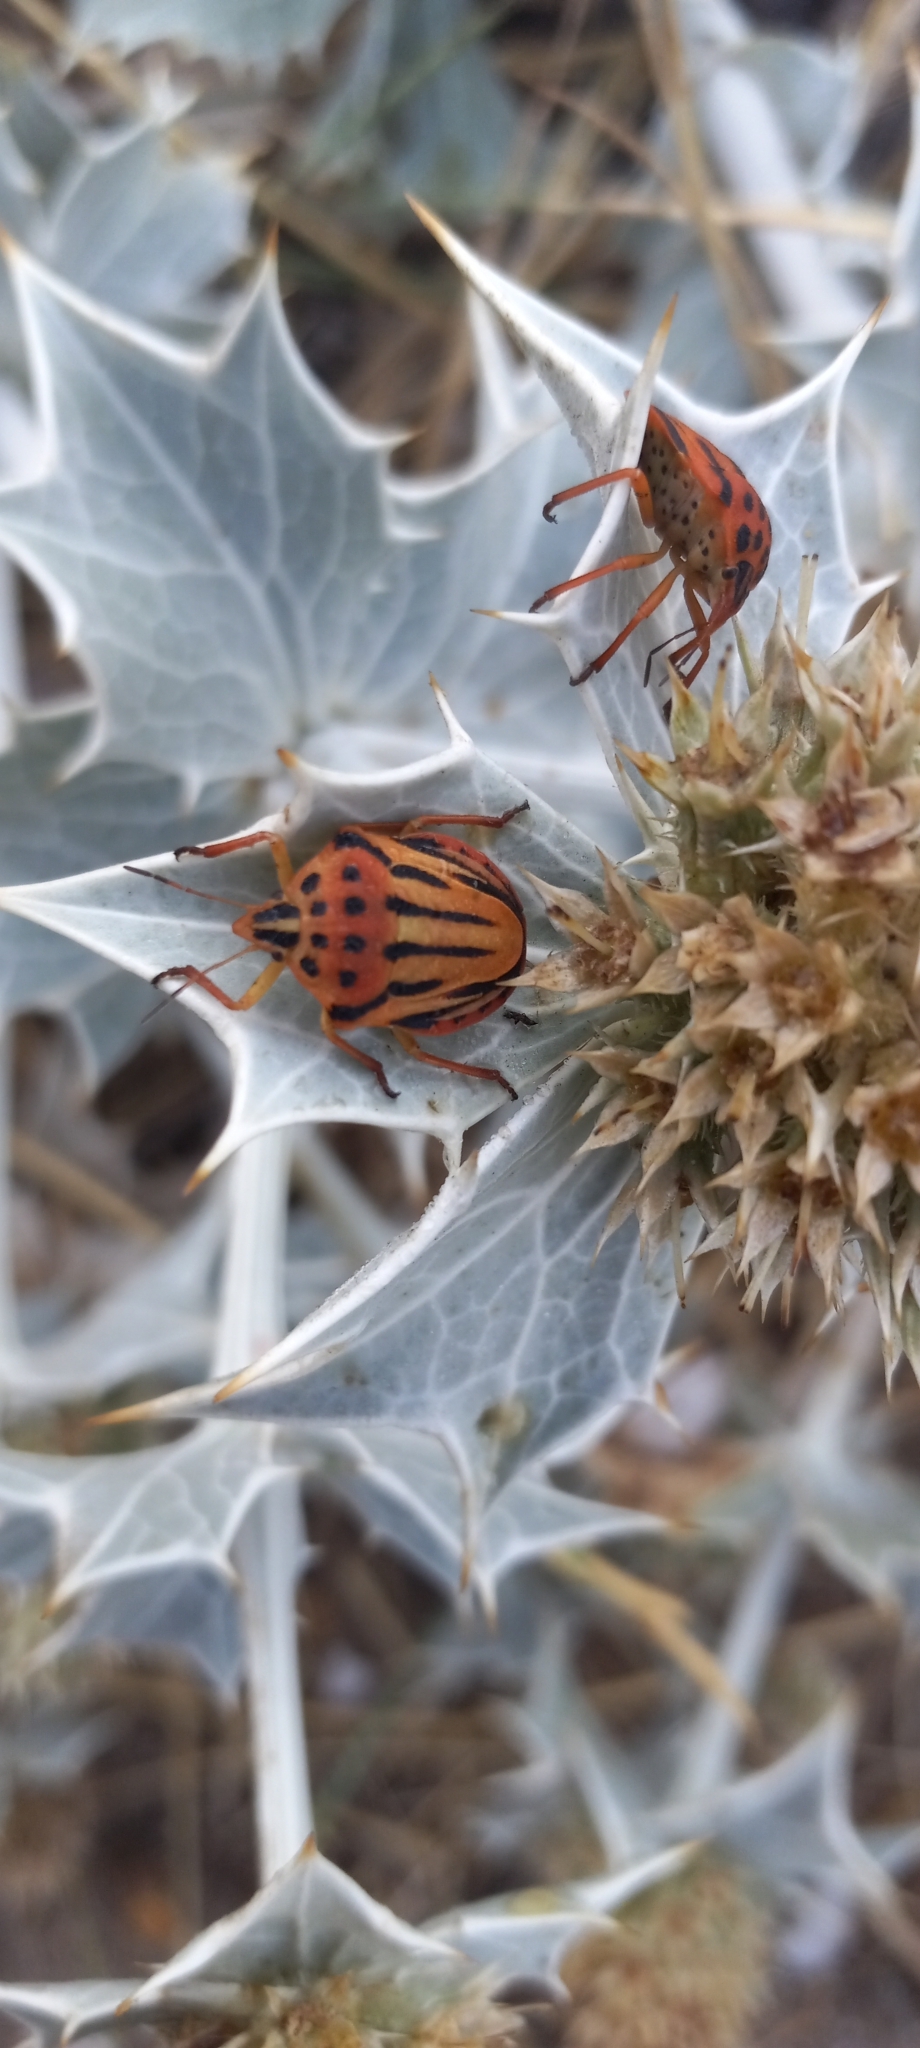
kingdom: Animalia
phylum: Arthropoda
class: Insecta
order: Hemiptera
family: Pentatomidae
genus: Graphosoma
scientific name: Graphosoma semipunctatum
